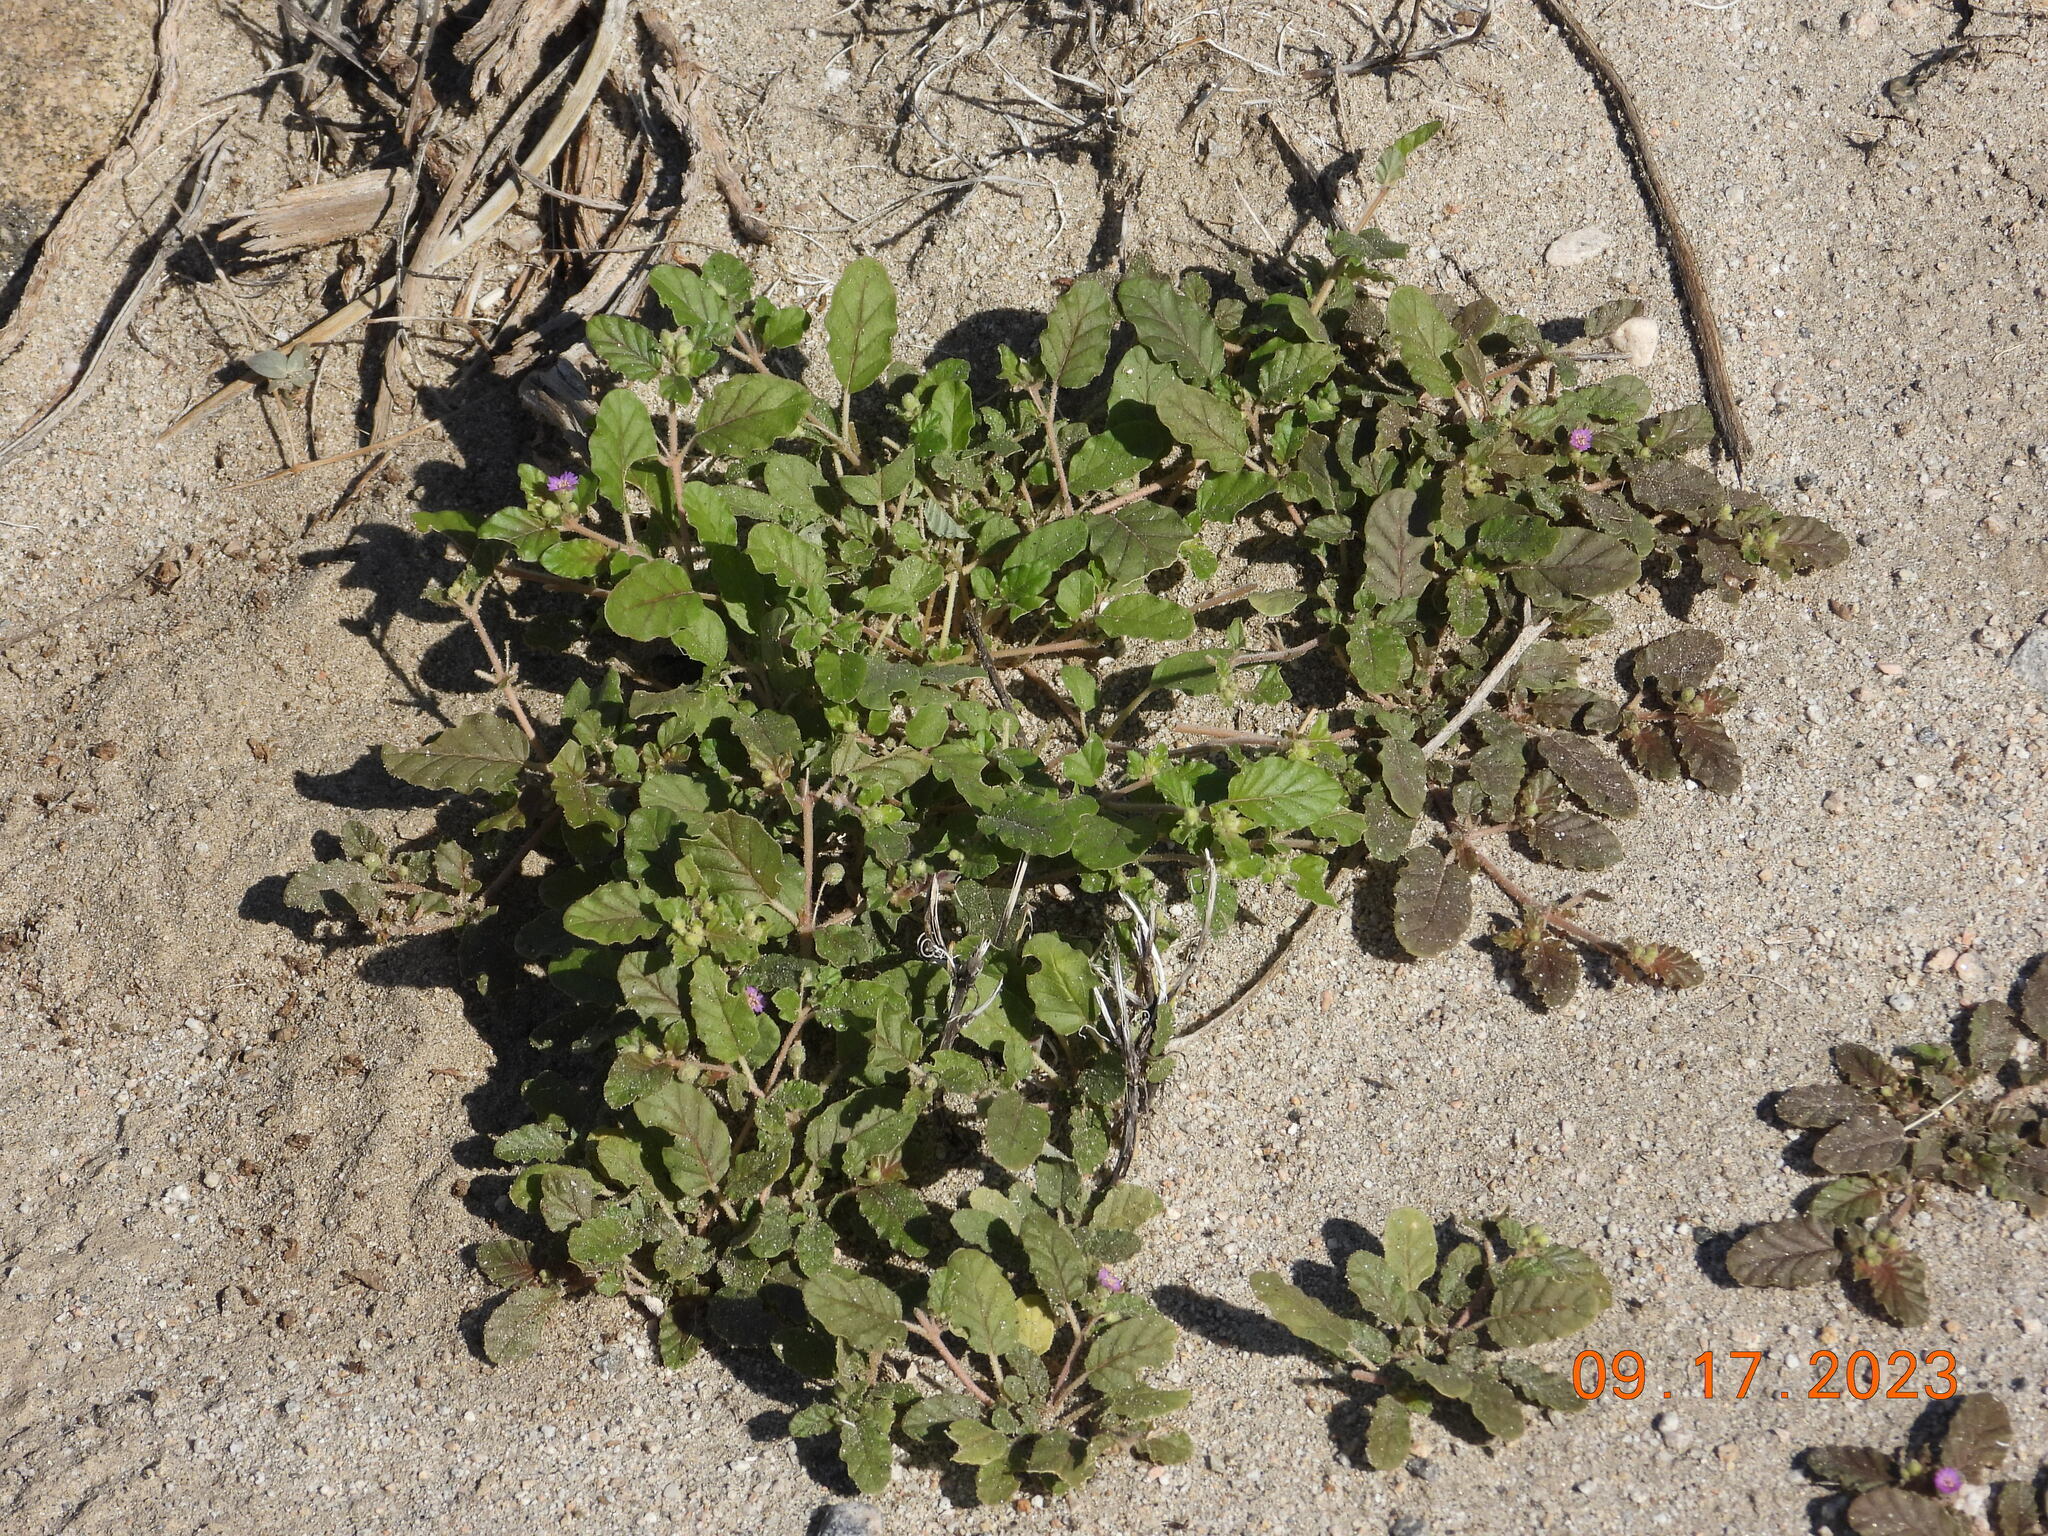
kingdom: Plantae
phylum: Tracheophyta
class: Magnoliopsida
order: Caryophyllales
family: Nyctaginaceae
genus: Allionia
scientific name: Allionia incarnata
